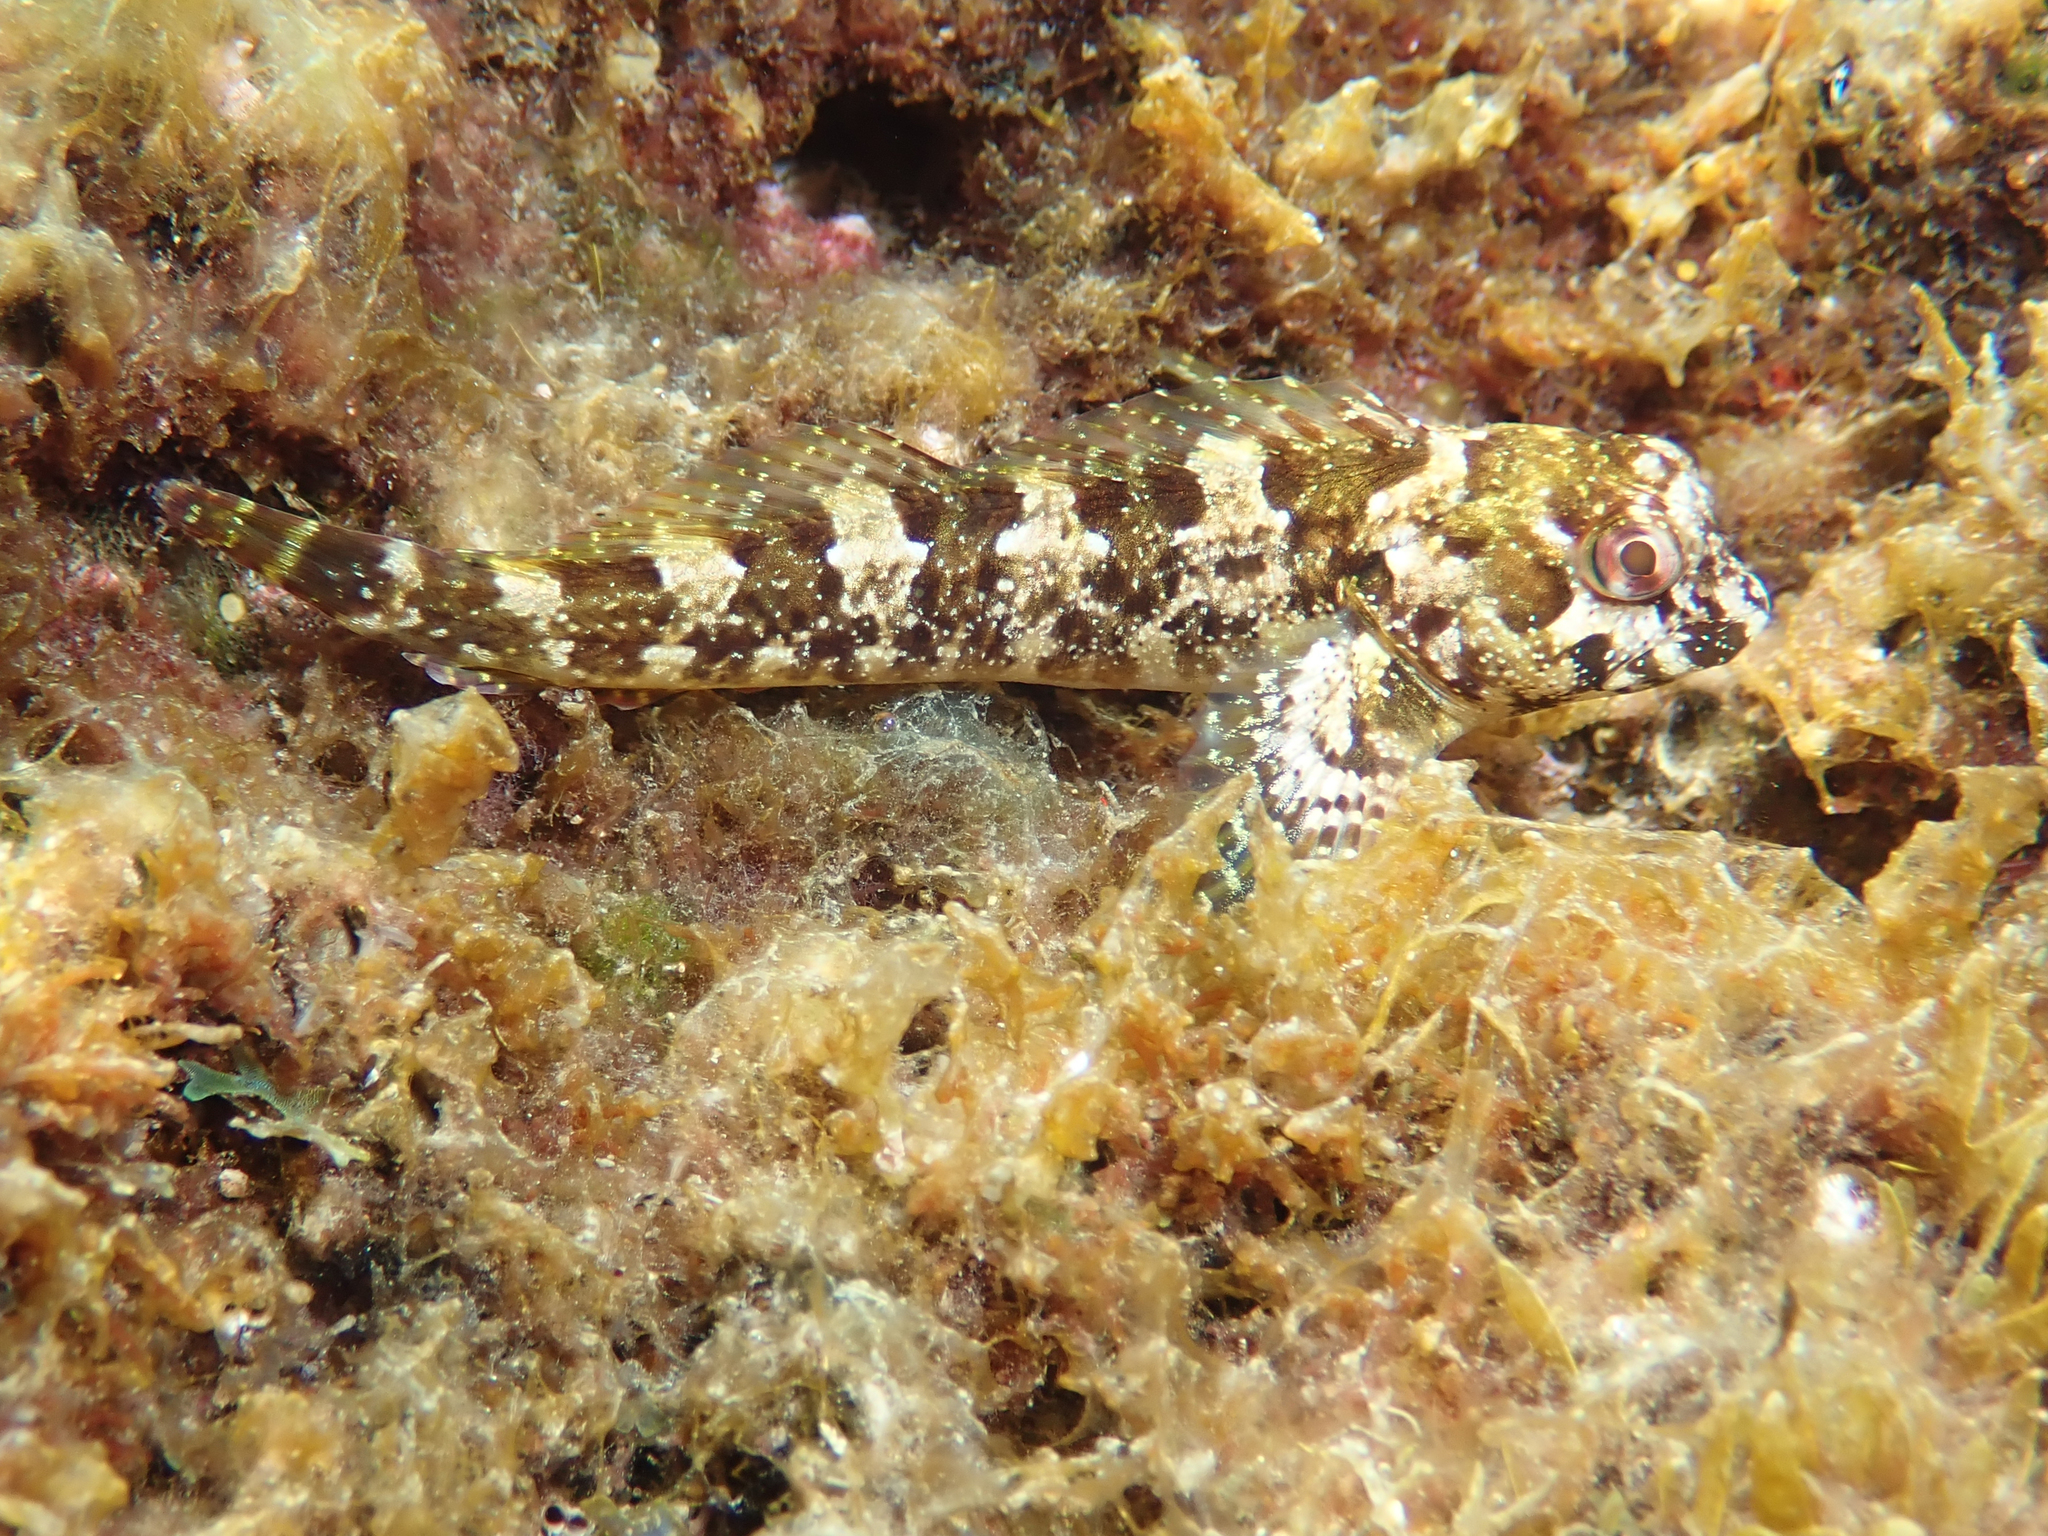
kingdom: Animalia
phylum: Chordata
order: Perciformes
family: Blenniidae
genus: Lipophrys
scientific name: Lipophrys trigloides
